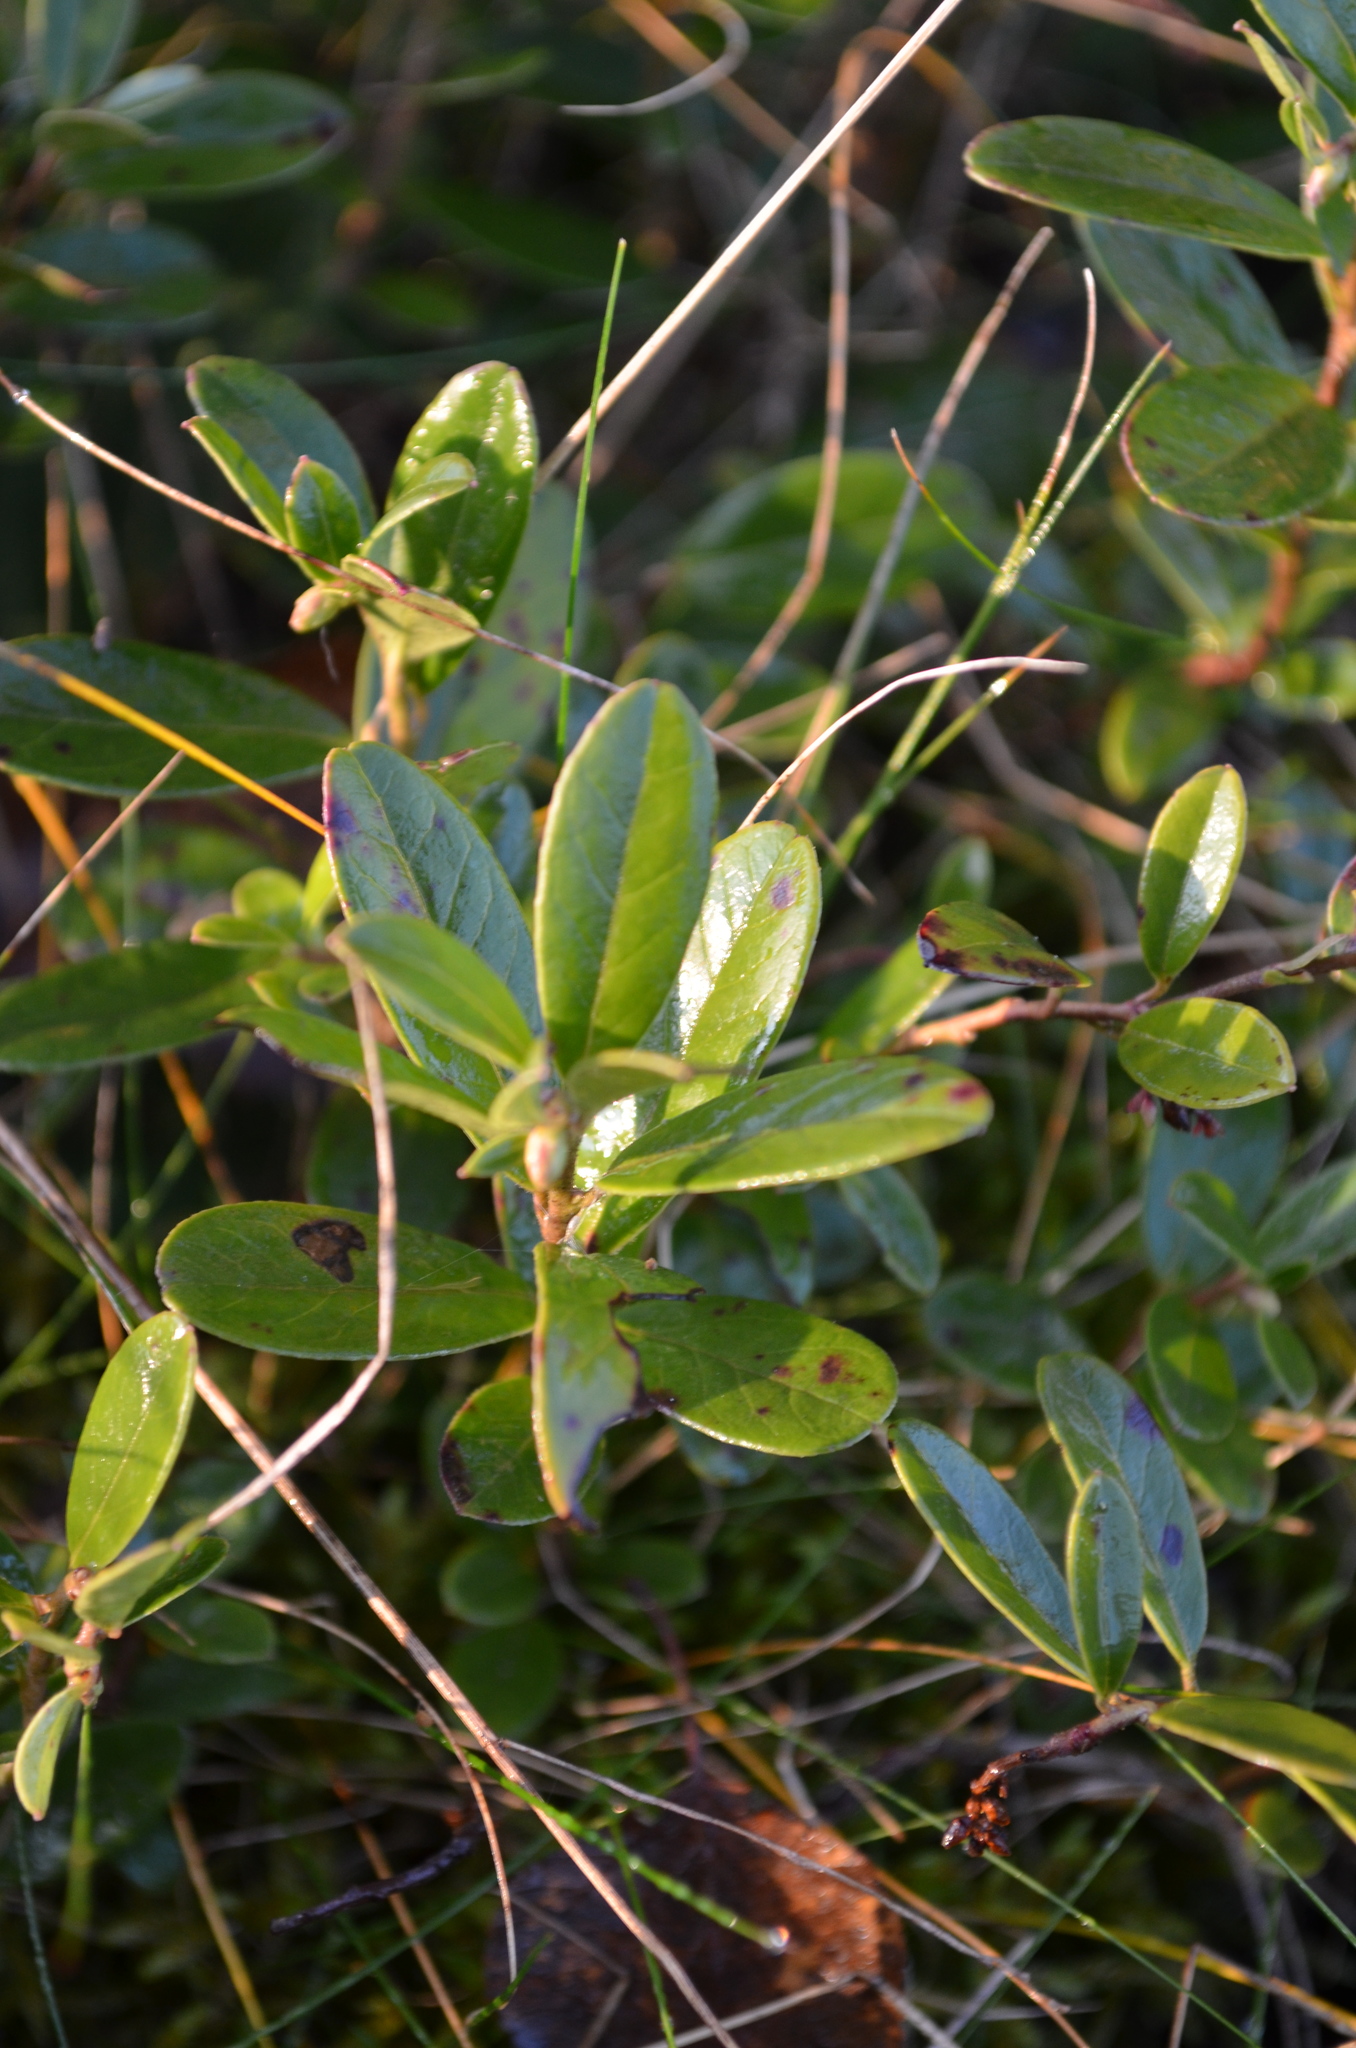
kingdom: Plantae
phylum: Tracheophyta
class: Magnoliopsida
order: Ericales
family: Ericaceae
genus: Vaccinium
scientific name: Vaccinium vitis-idaea
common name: Cowberry
